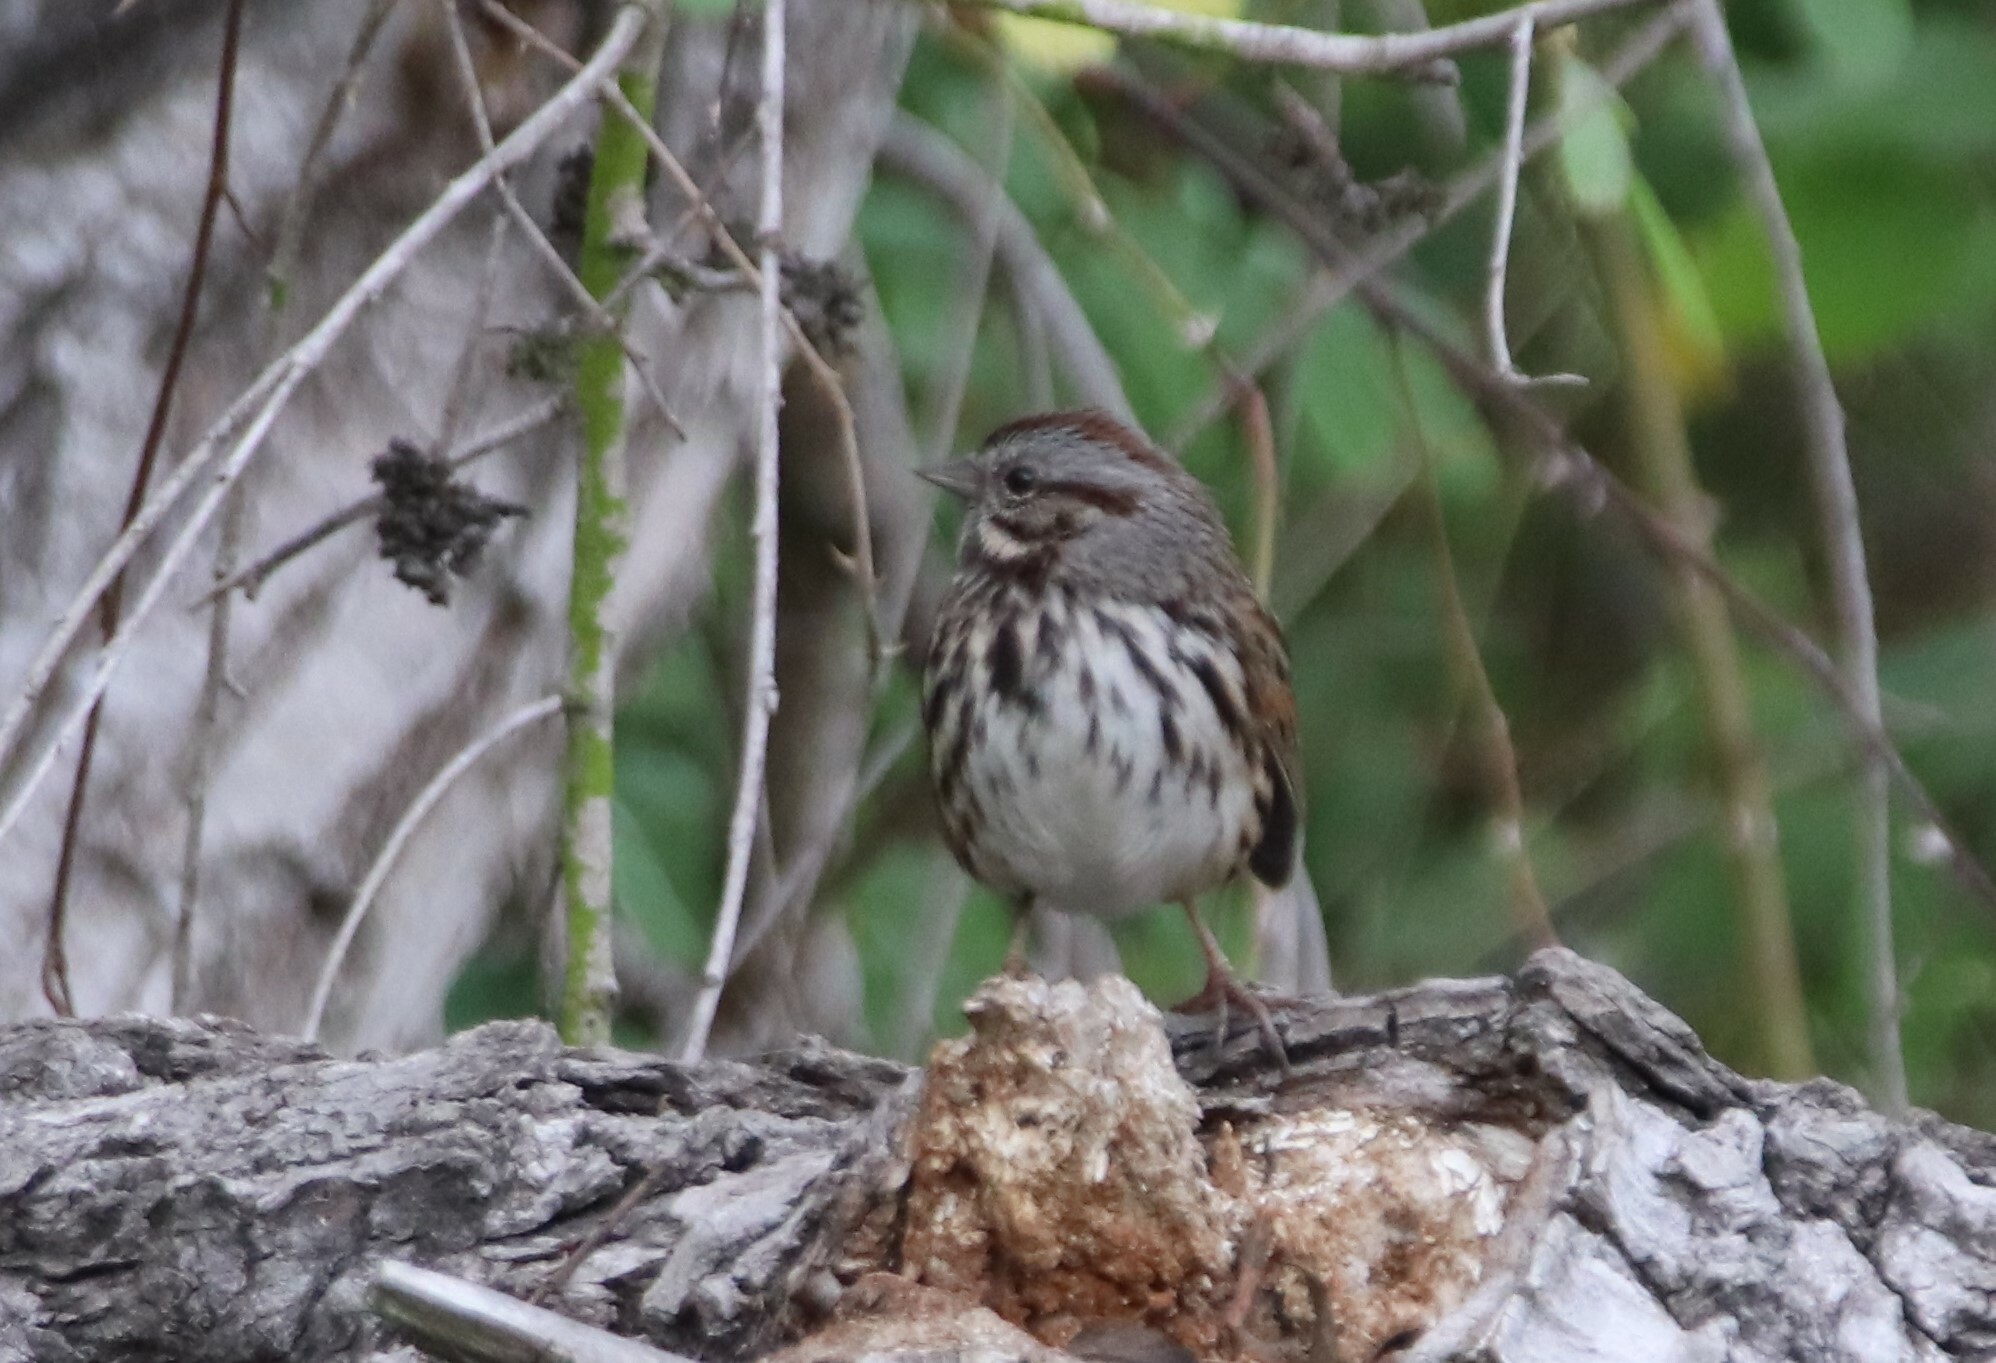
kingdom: Animalia
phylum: Chordata
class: Aves
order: Passeriformes
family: Passerellidae
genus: Melospiza
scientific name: Melospiza melodia
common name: Song sparrow
